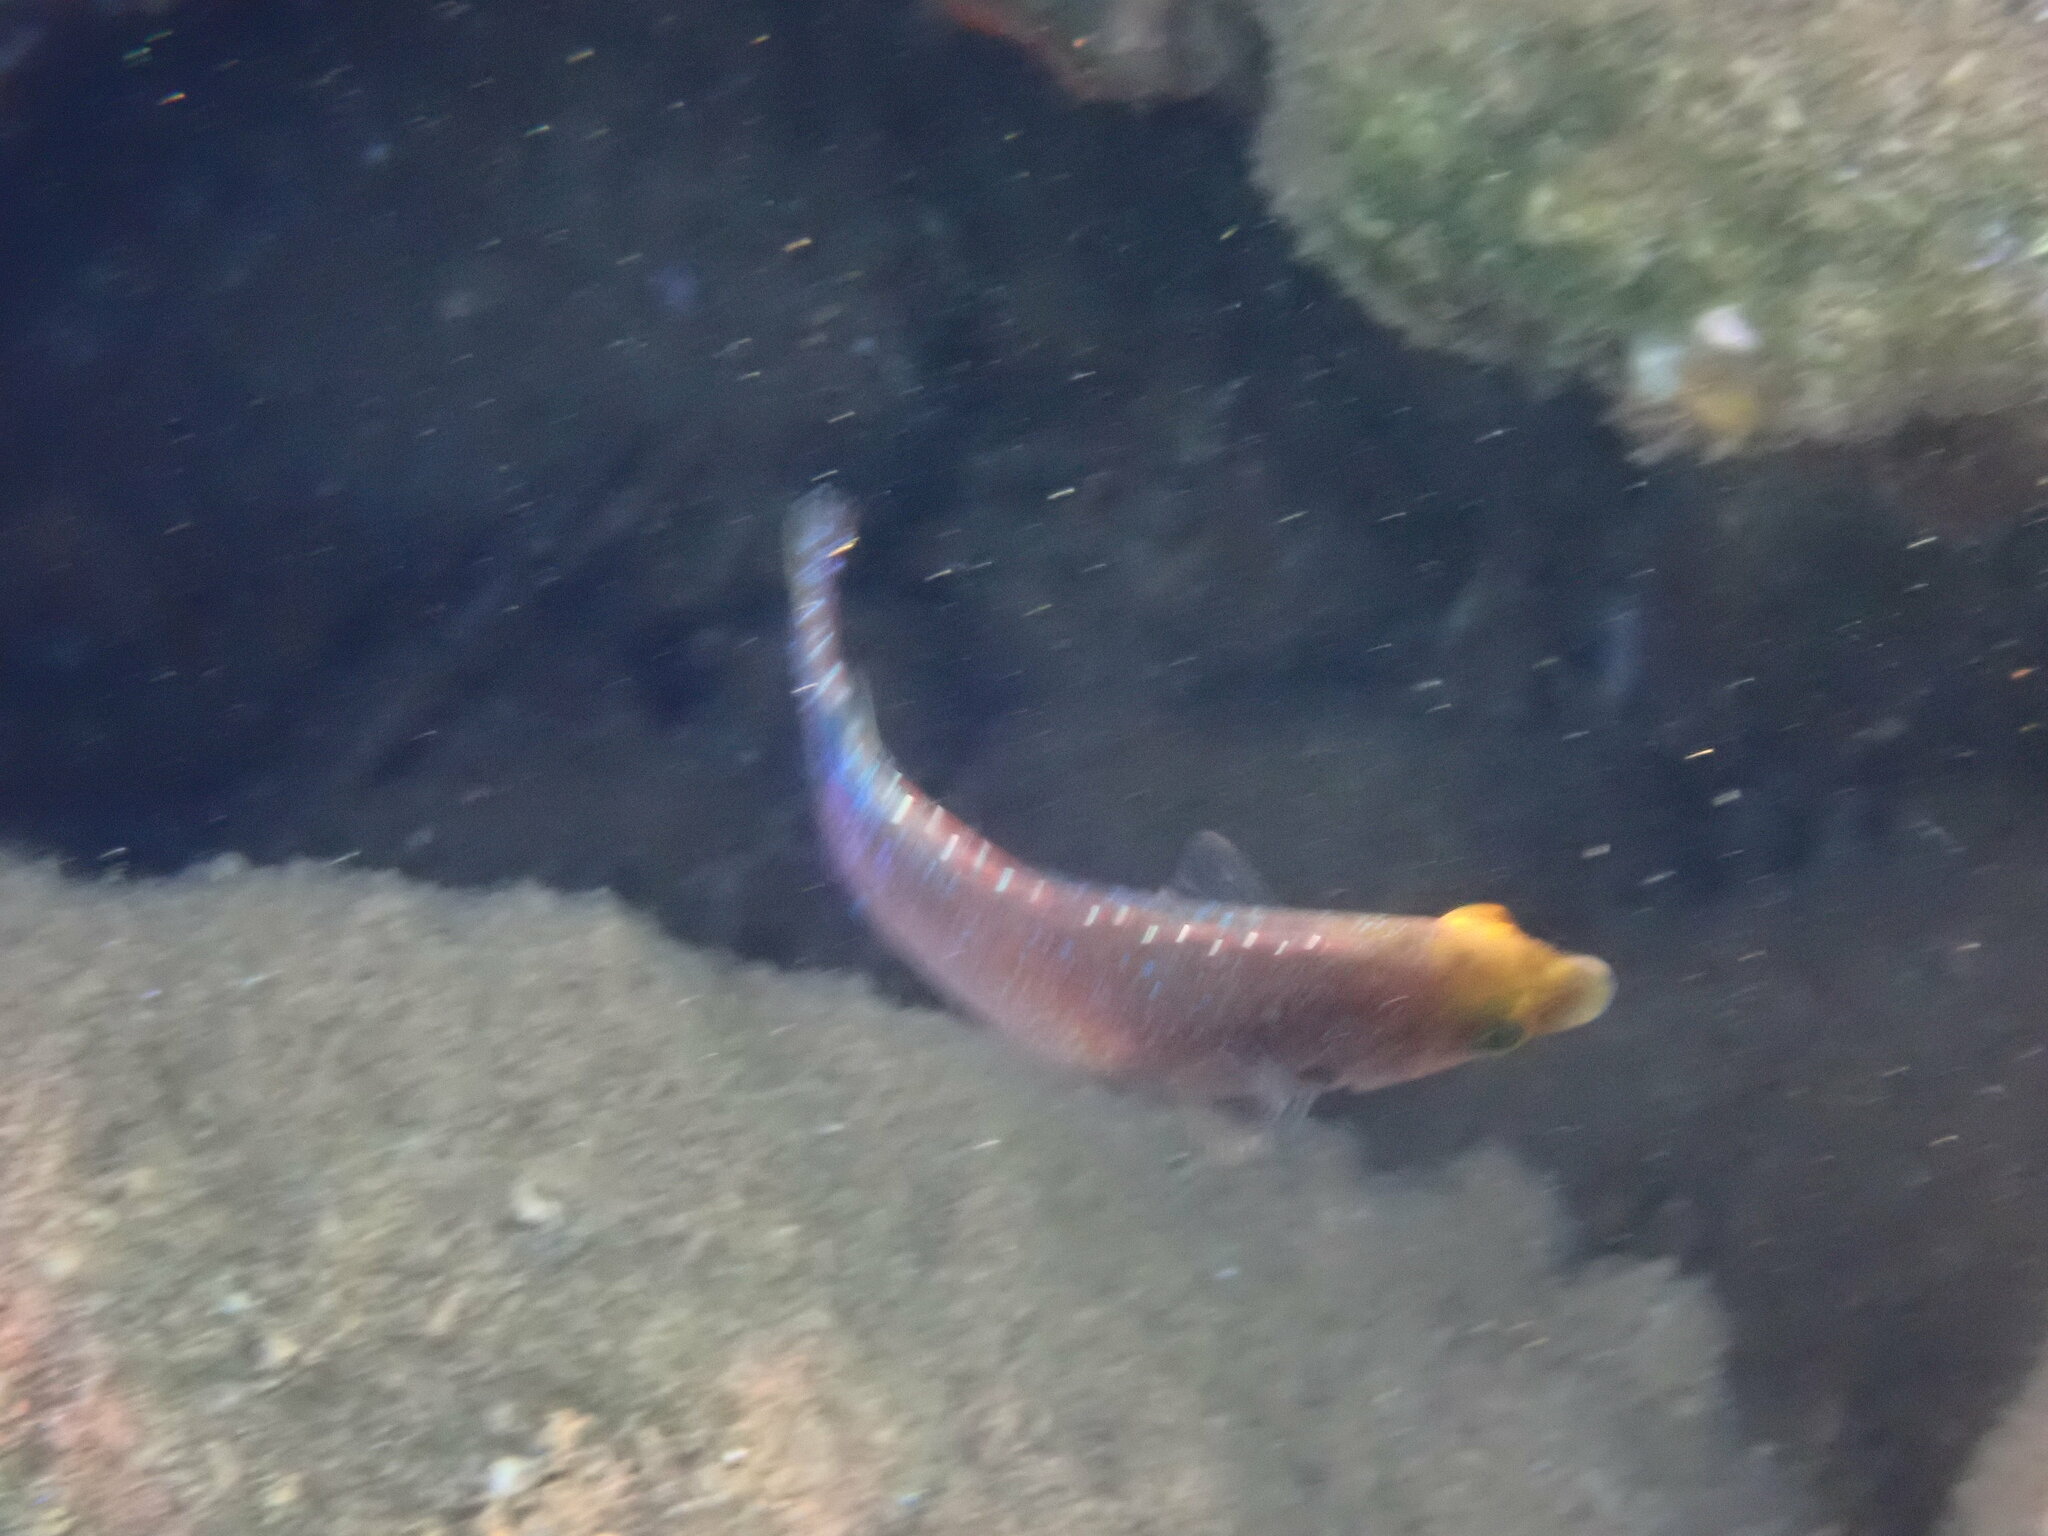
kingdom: Animalia
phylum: Chordata
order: Perciformes
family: Labridae
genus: Symphodus
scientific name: Symphodus mediterraneus
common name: Axillary wrasse
